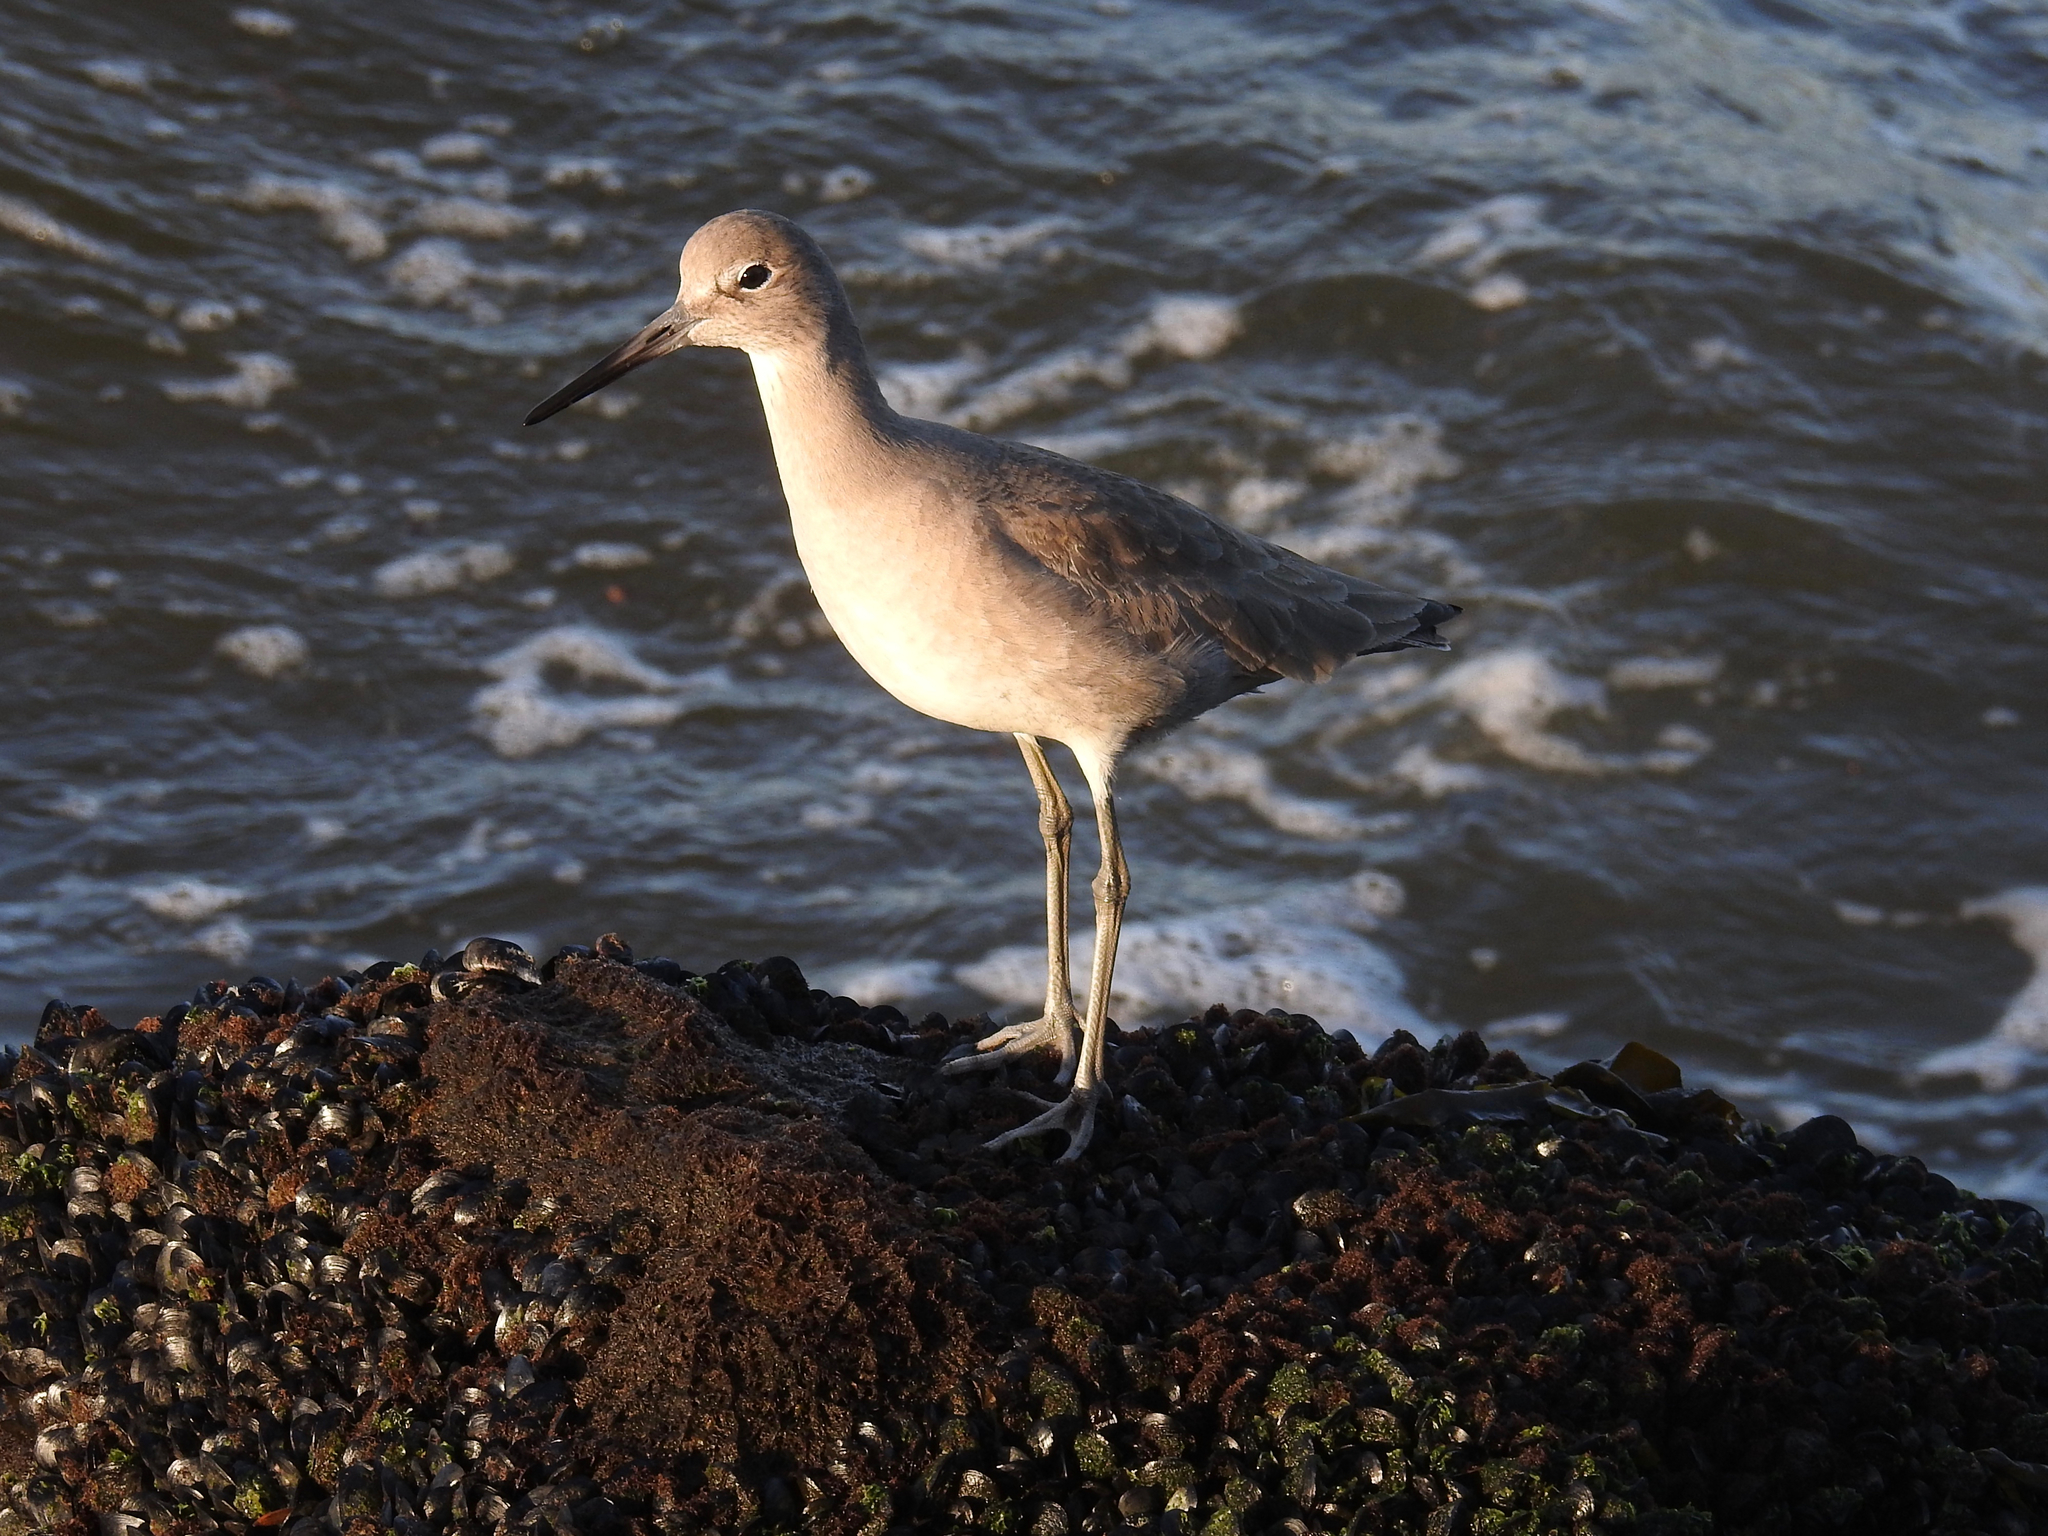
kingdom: Animalia
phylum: Chordata
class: Aves
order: Charadriiformes
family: Scolopacidae
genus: Tringa
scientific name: Tringa semipalmata
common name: Willet
